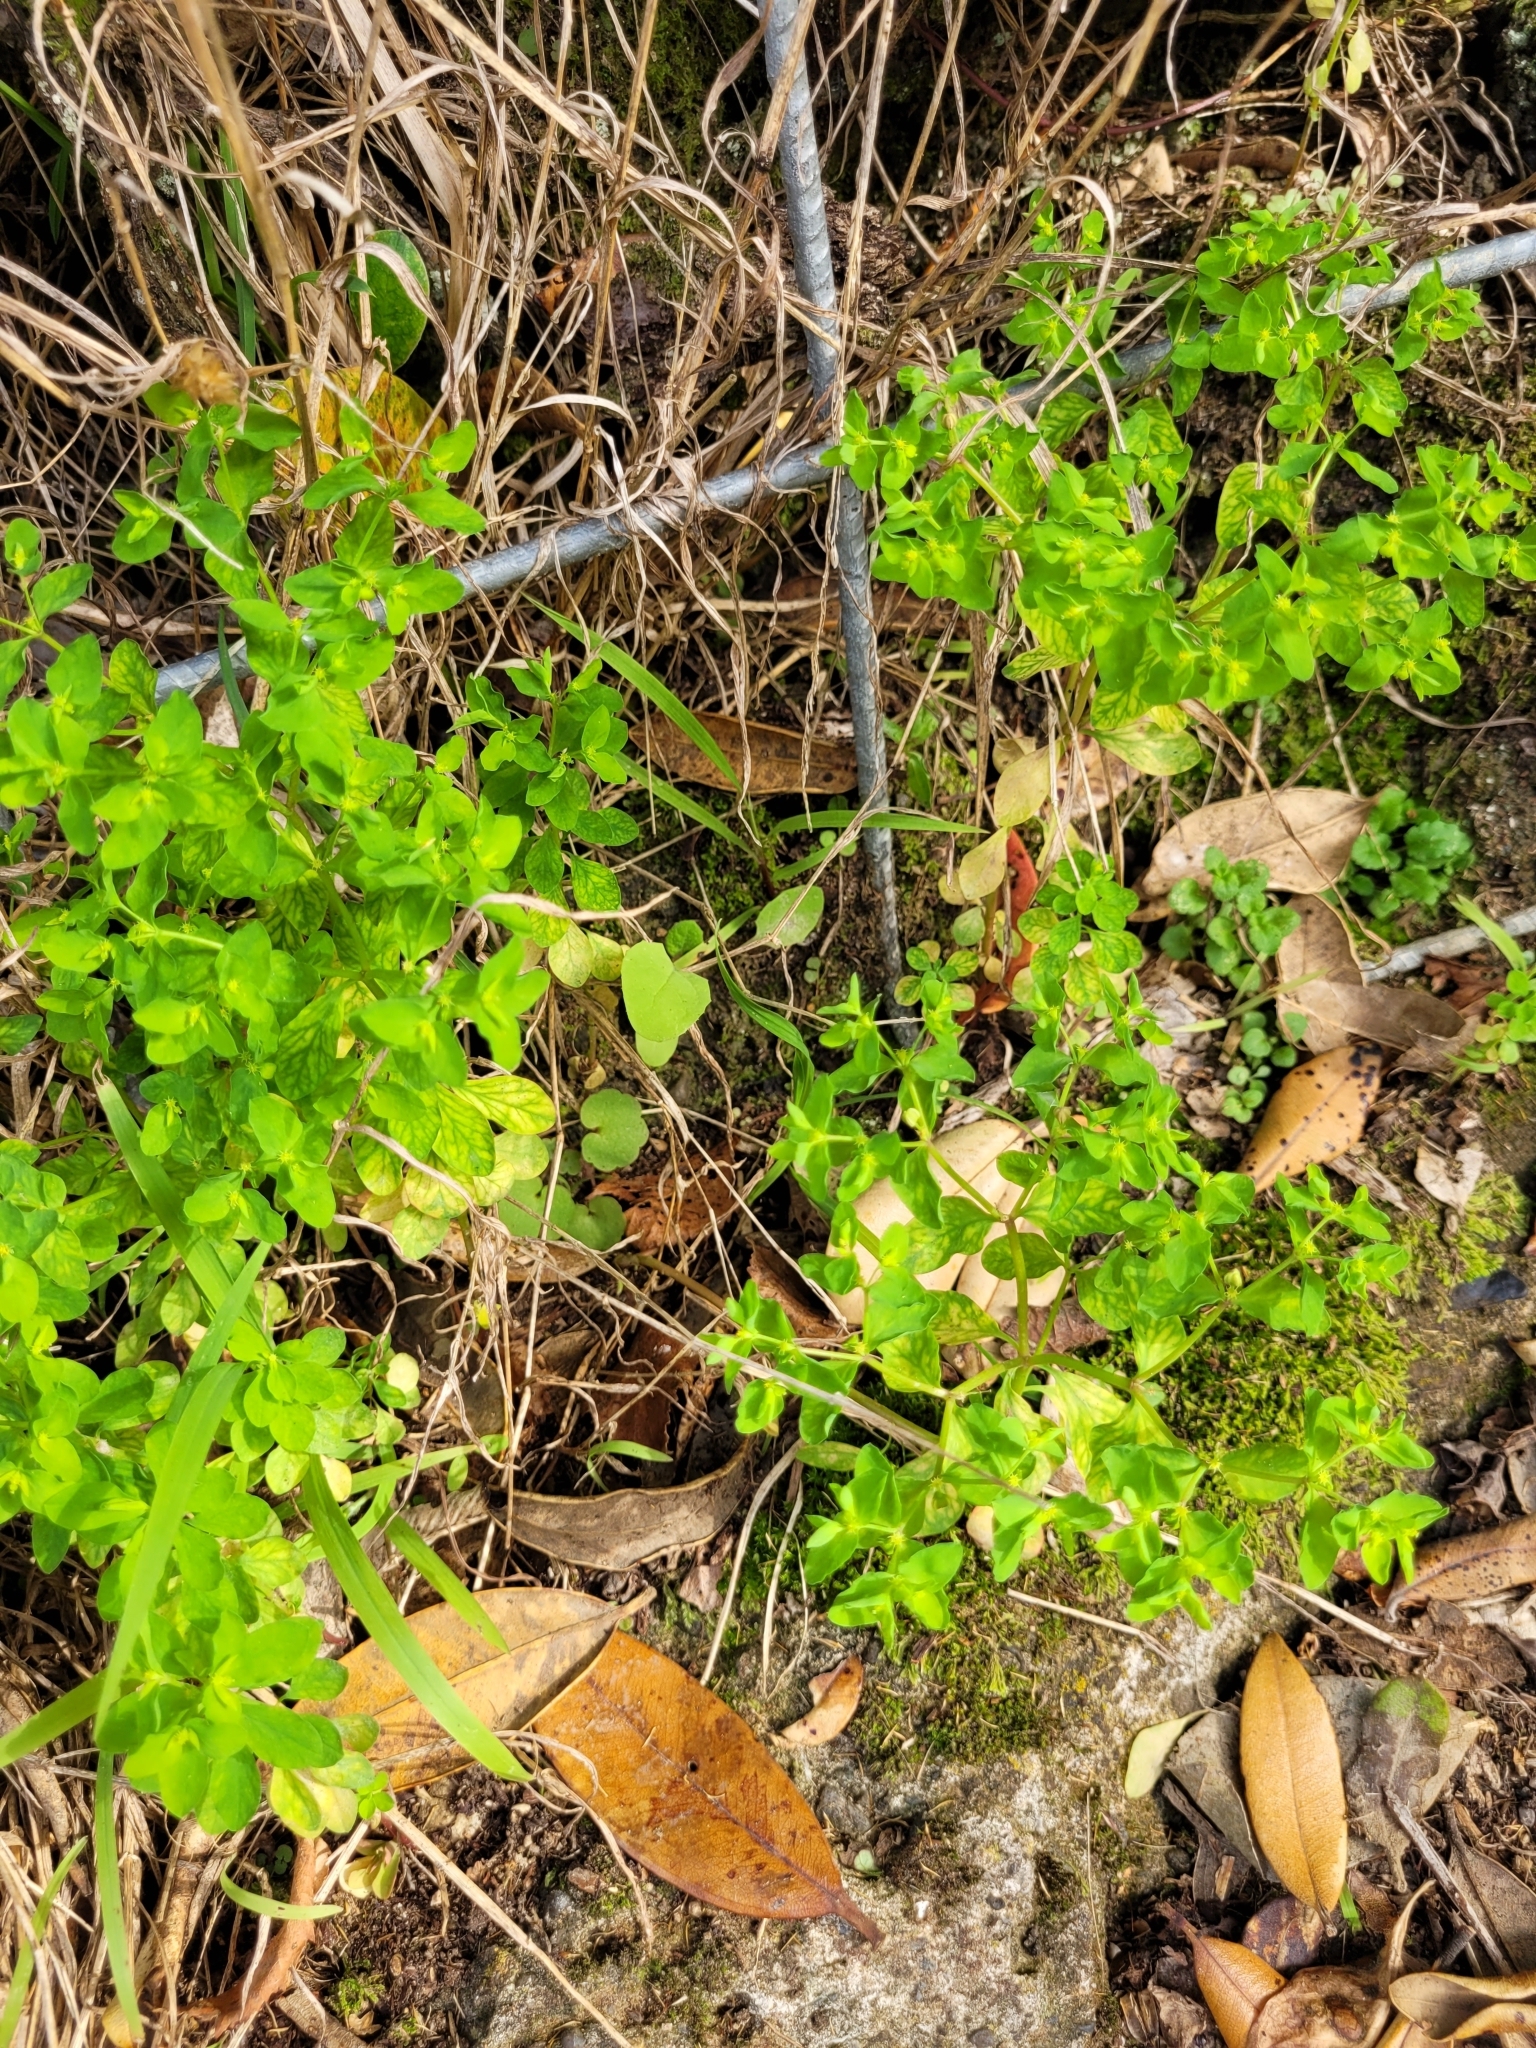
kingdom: Plantae
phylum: Tracheophyta
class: Magnoliopsida
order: Malpighiales
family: Euphorbiaceae
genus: Euphorbia
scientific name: Euphorbia peplus
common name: Petty spurge
